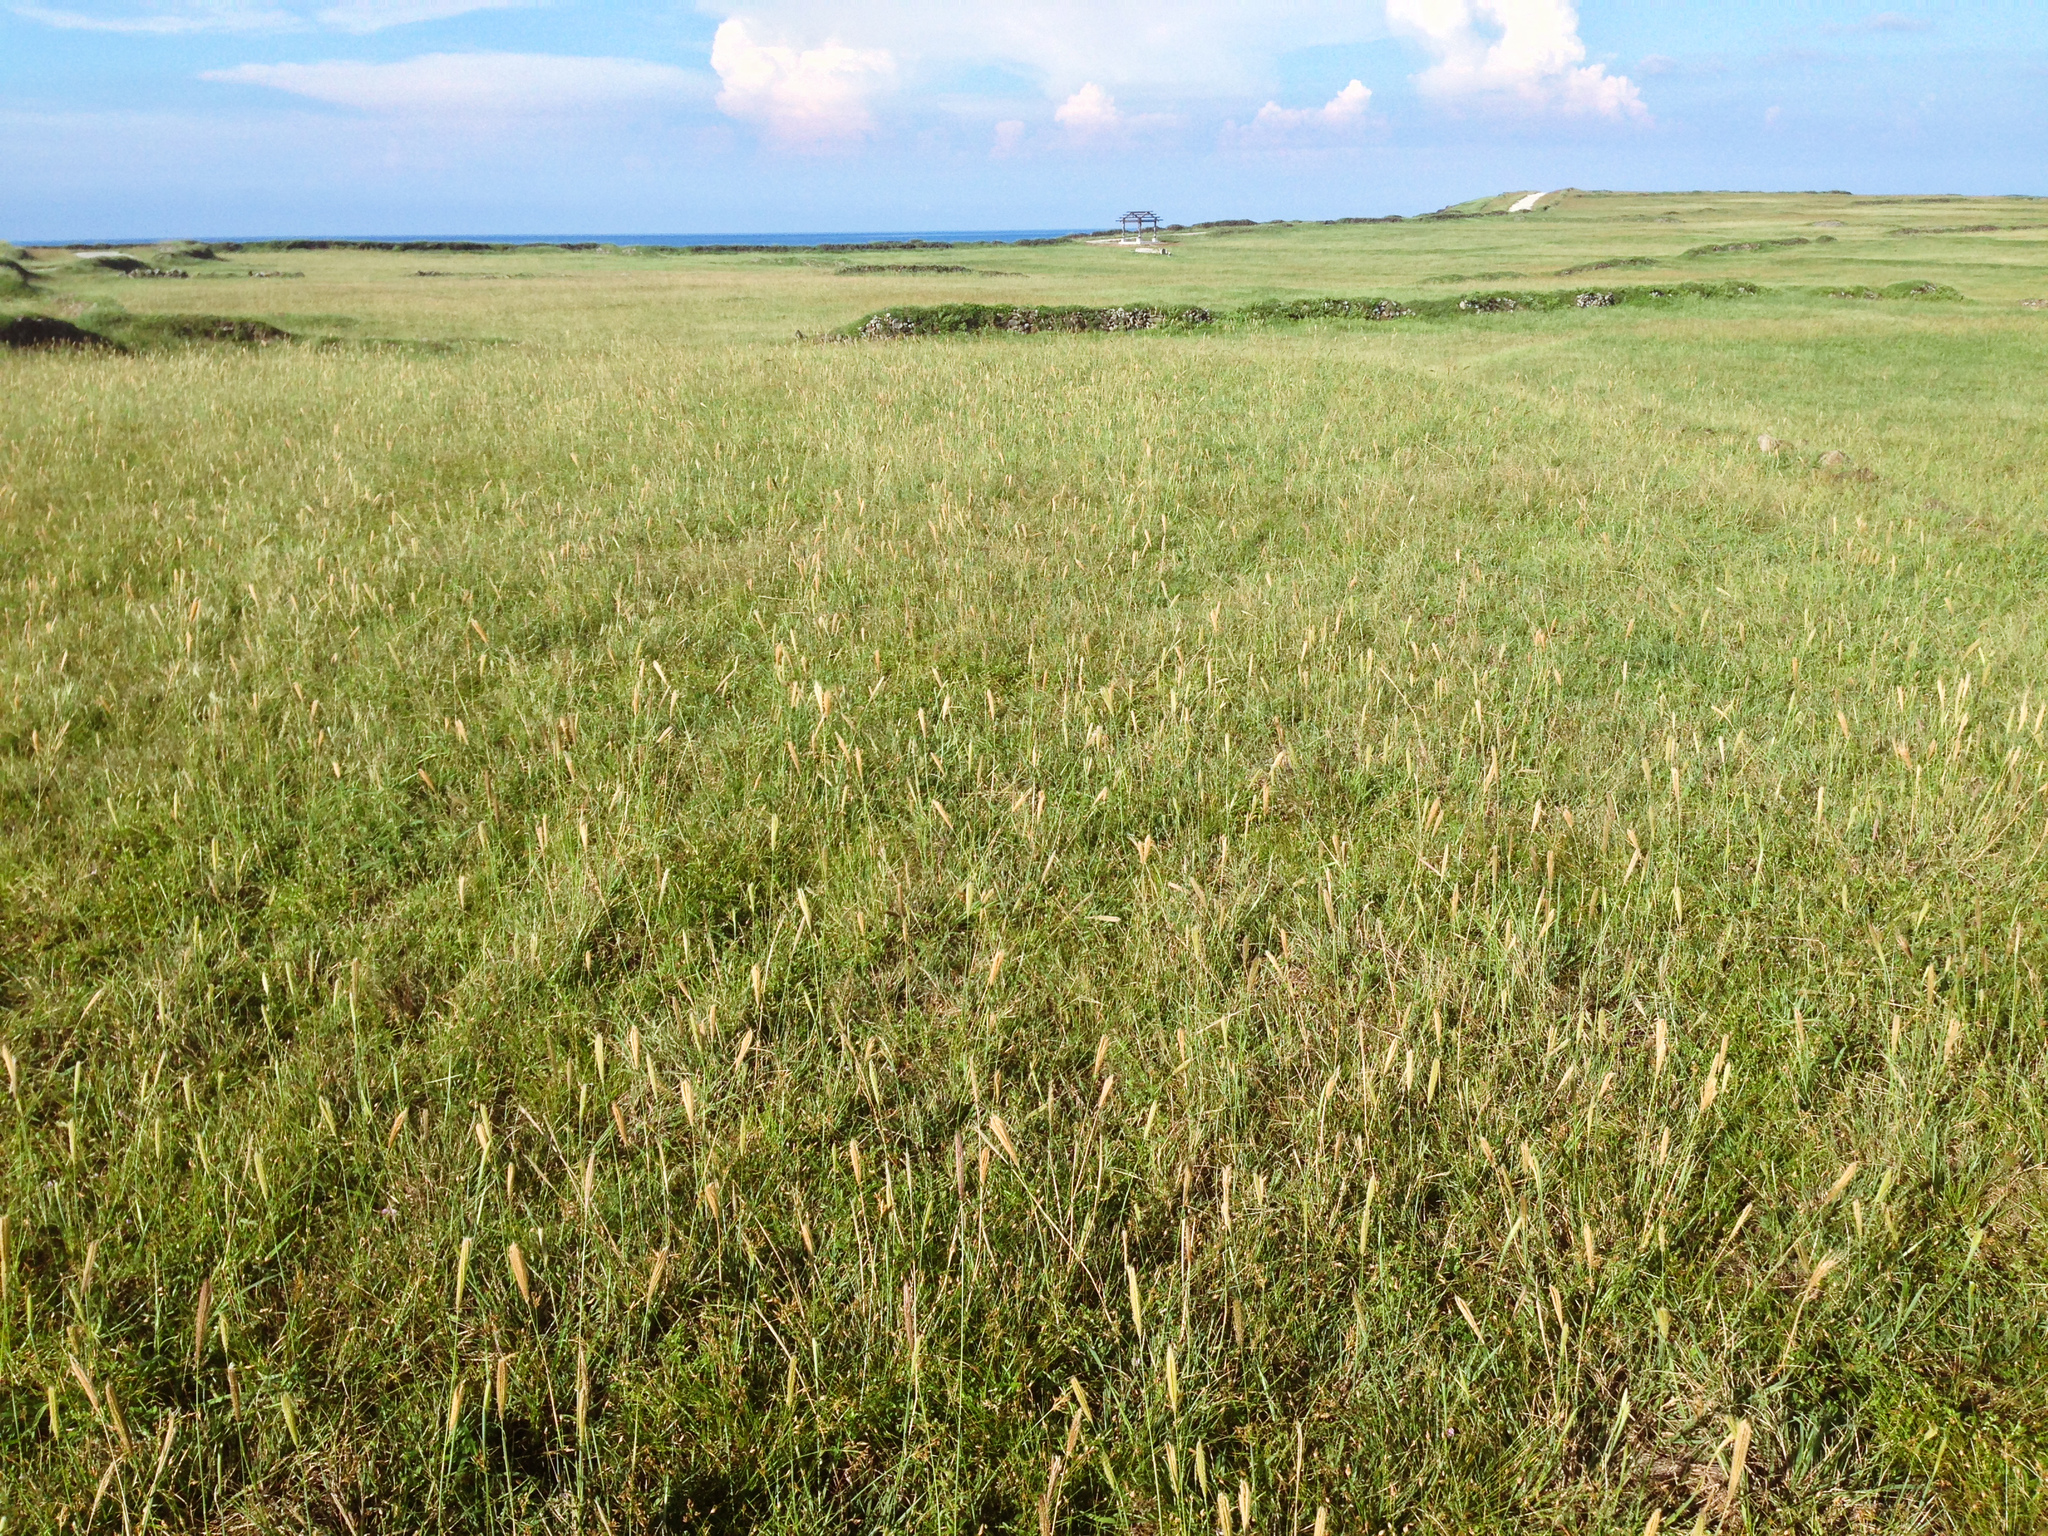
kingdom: Plantae
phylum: Tracheophyta
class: Liliopsida
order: Poales
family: Poaceae
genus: Chloris
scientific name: Chloris formosana
